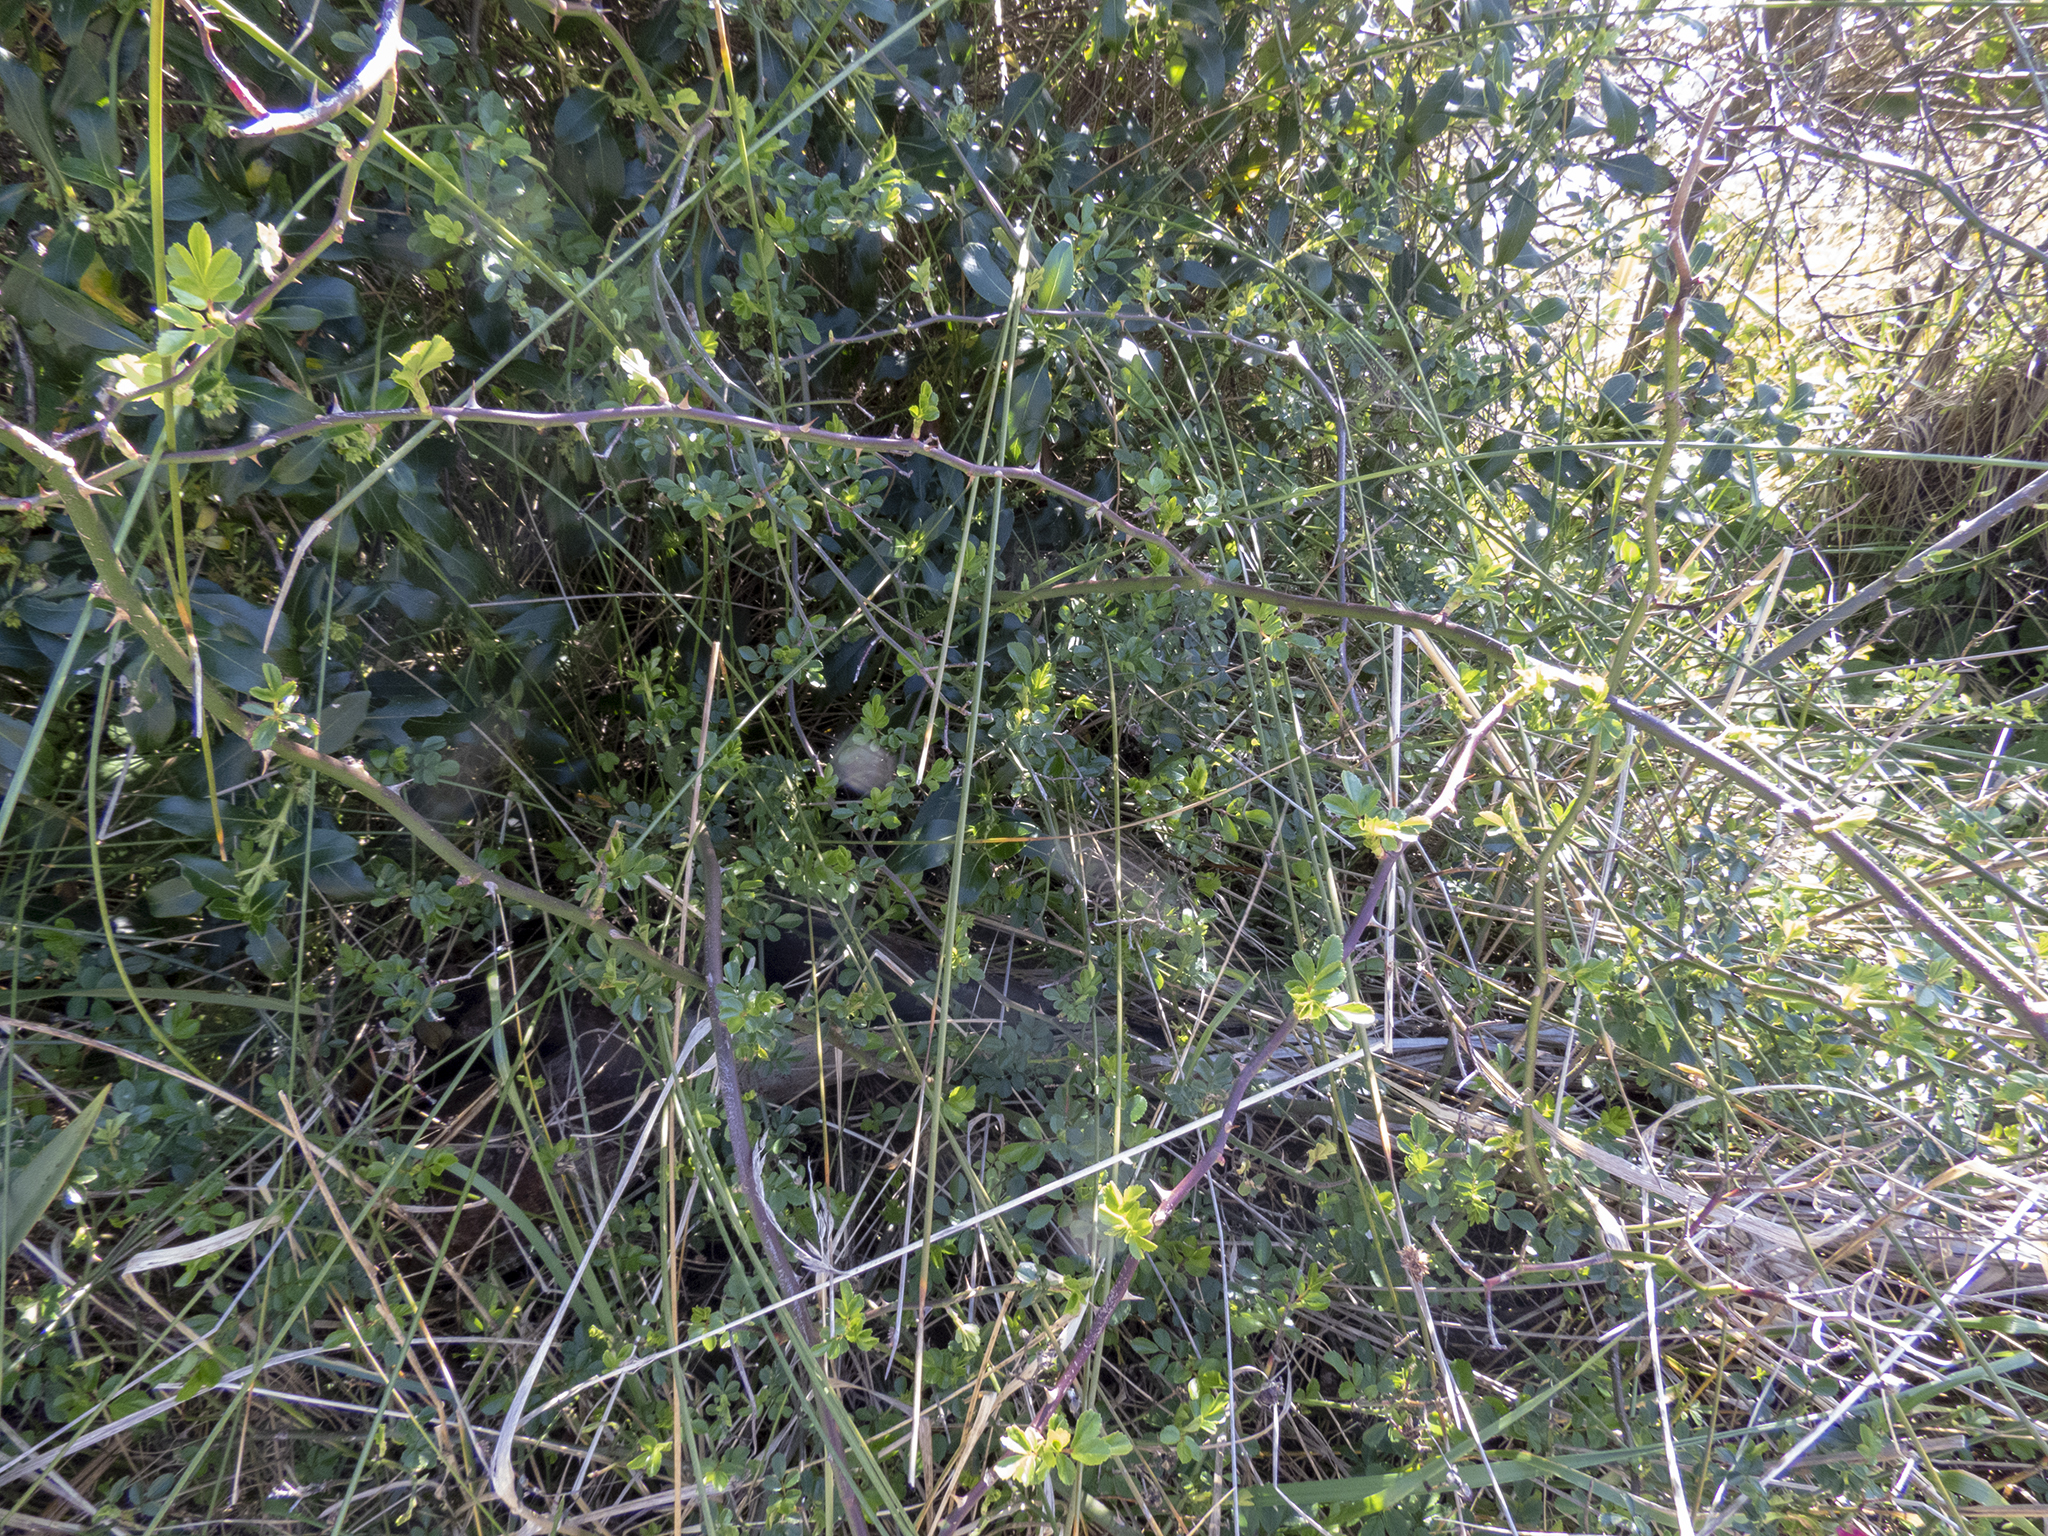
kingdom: Plantae
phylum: Tracheophyta
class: Magnoliopsida
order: Rosales
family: Rosaceae
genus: Rosa
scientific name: Rosa rubiginosa
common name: Sweet-briar
